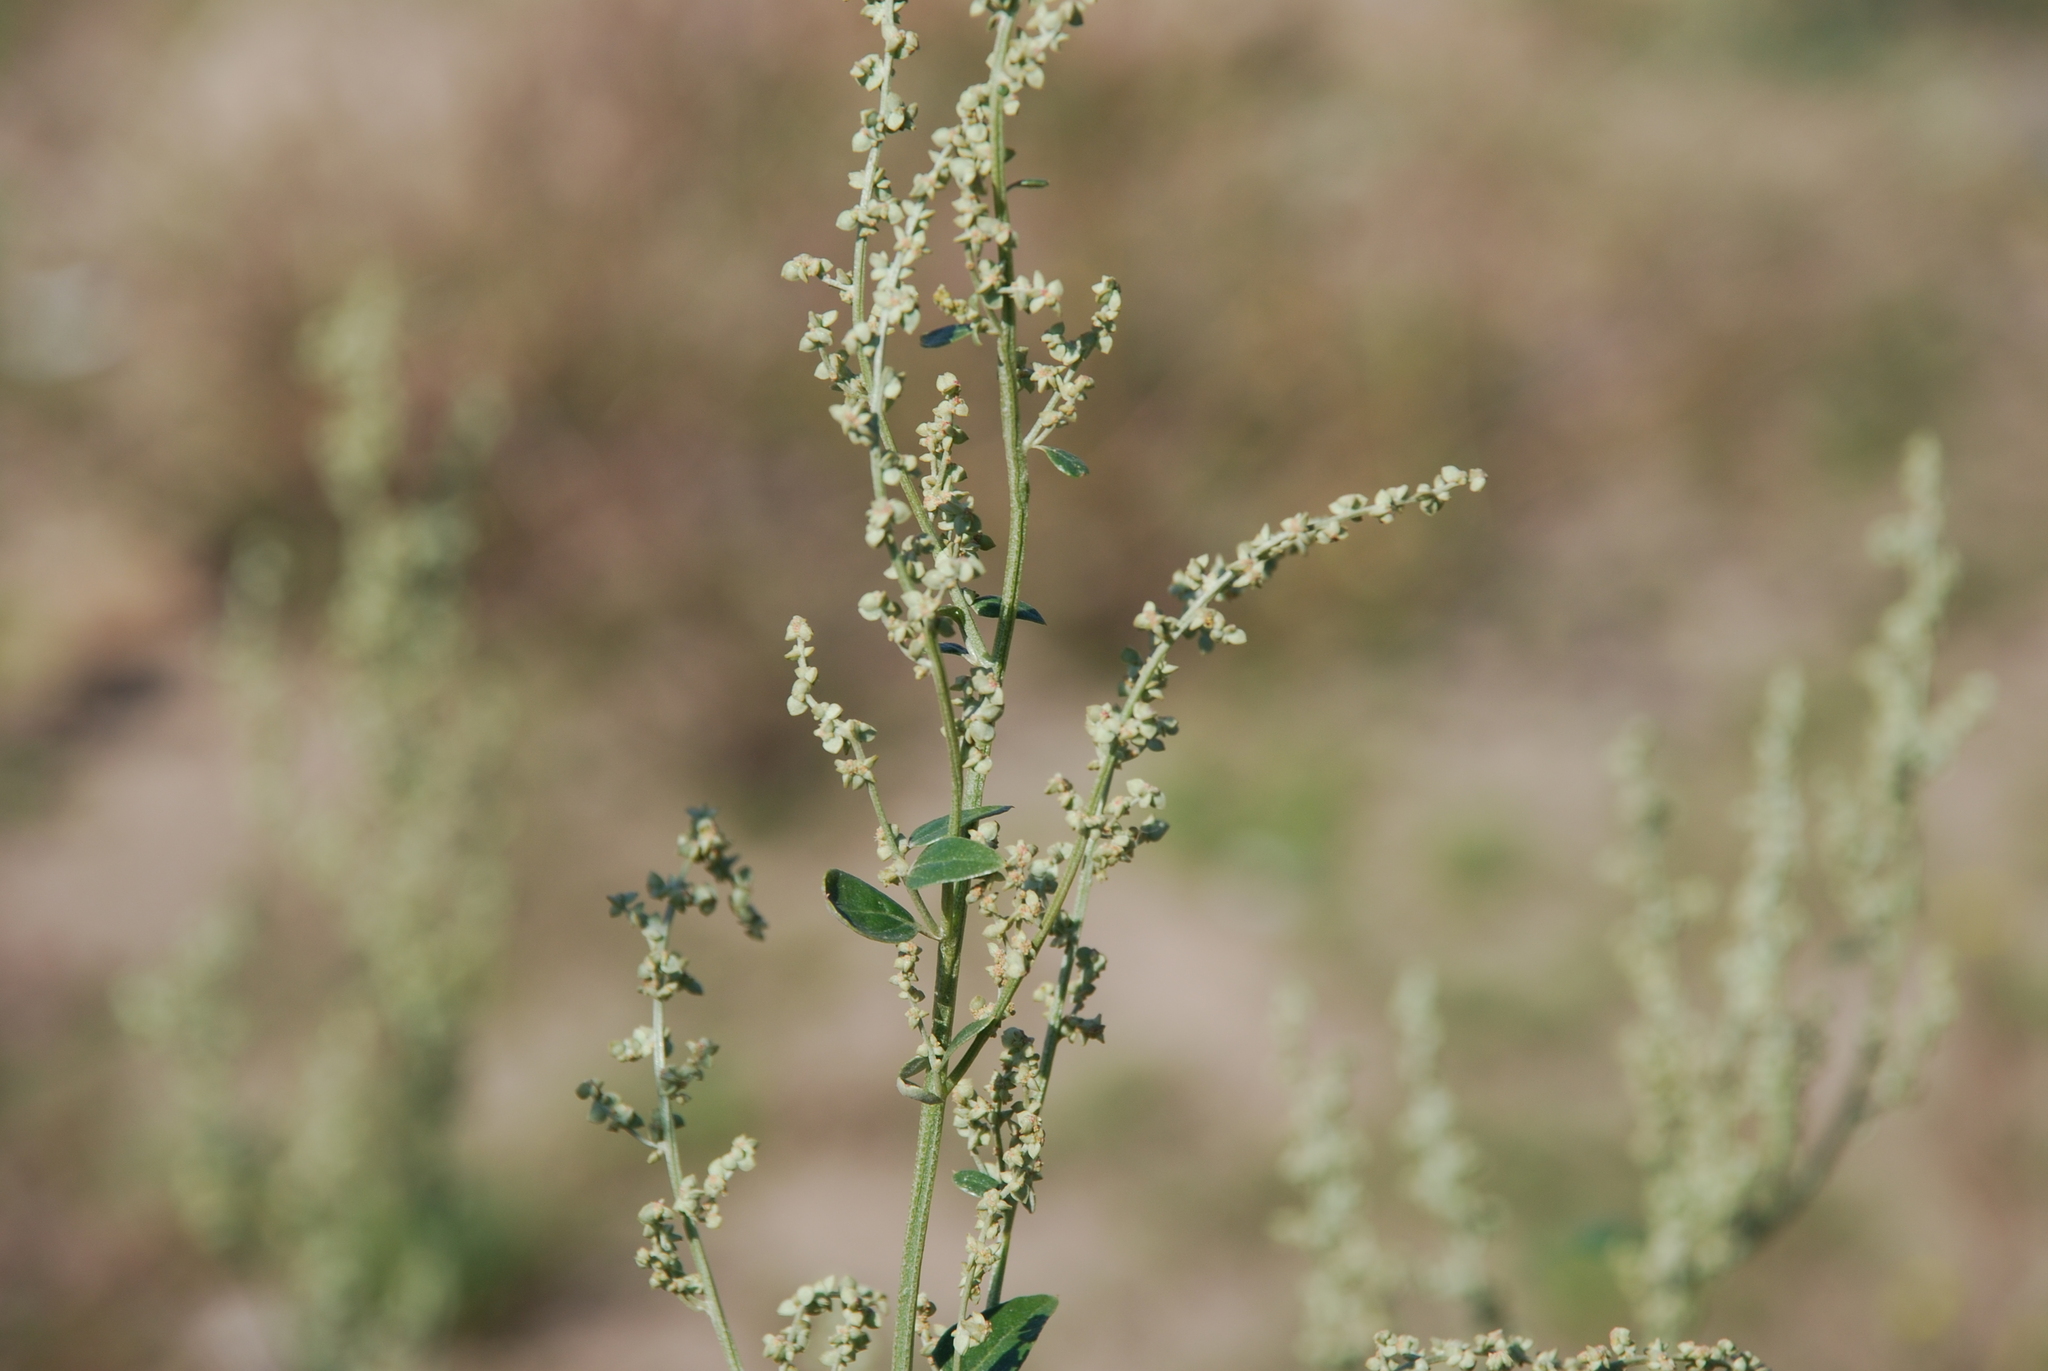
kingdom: Plantae
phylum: Tracheophyta
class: Magnoliopsida
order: Caryophyllales
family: Amaranthaceae
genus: Atriplex
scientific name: Atriplex sagittata
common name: Purple orache
